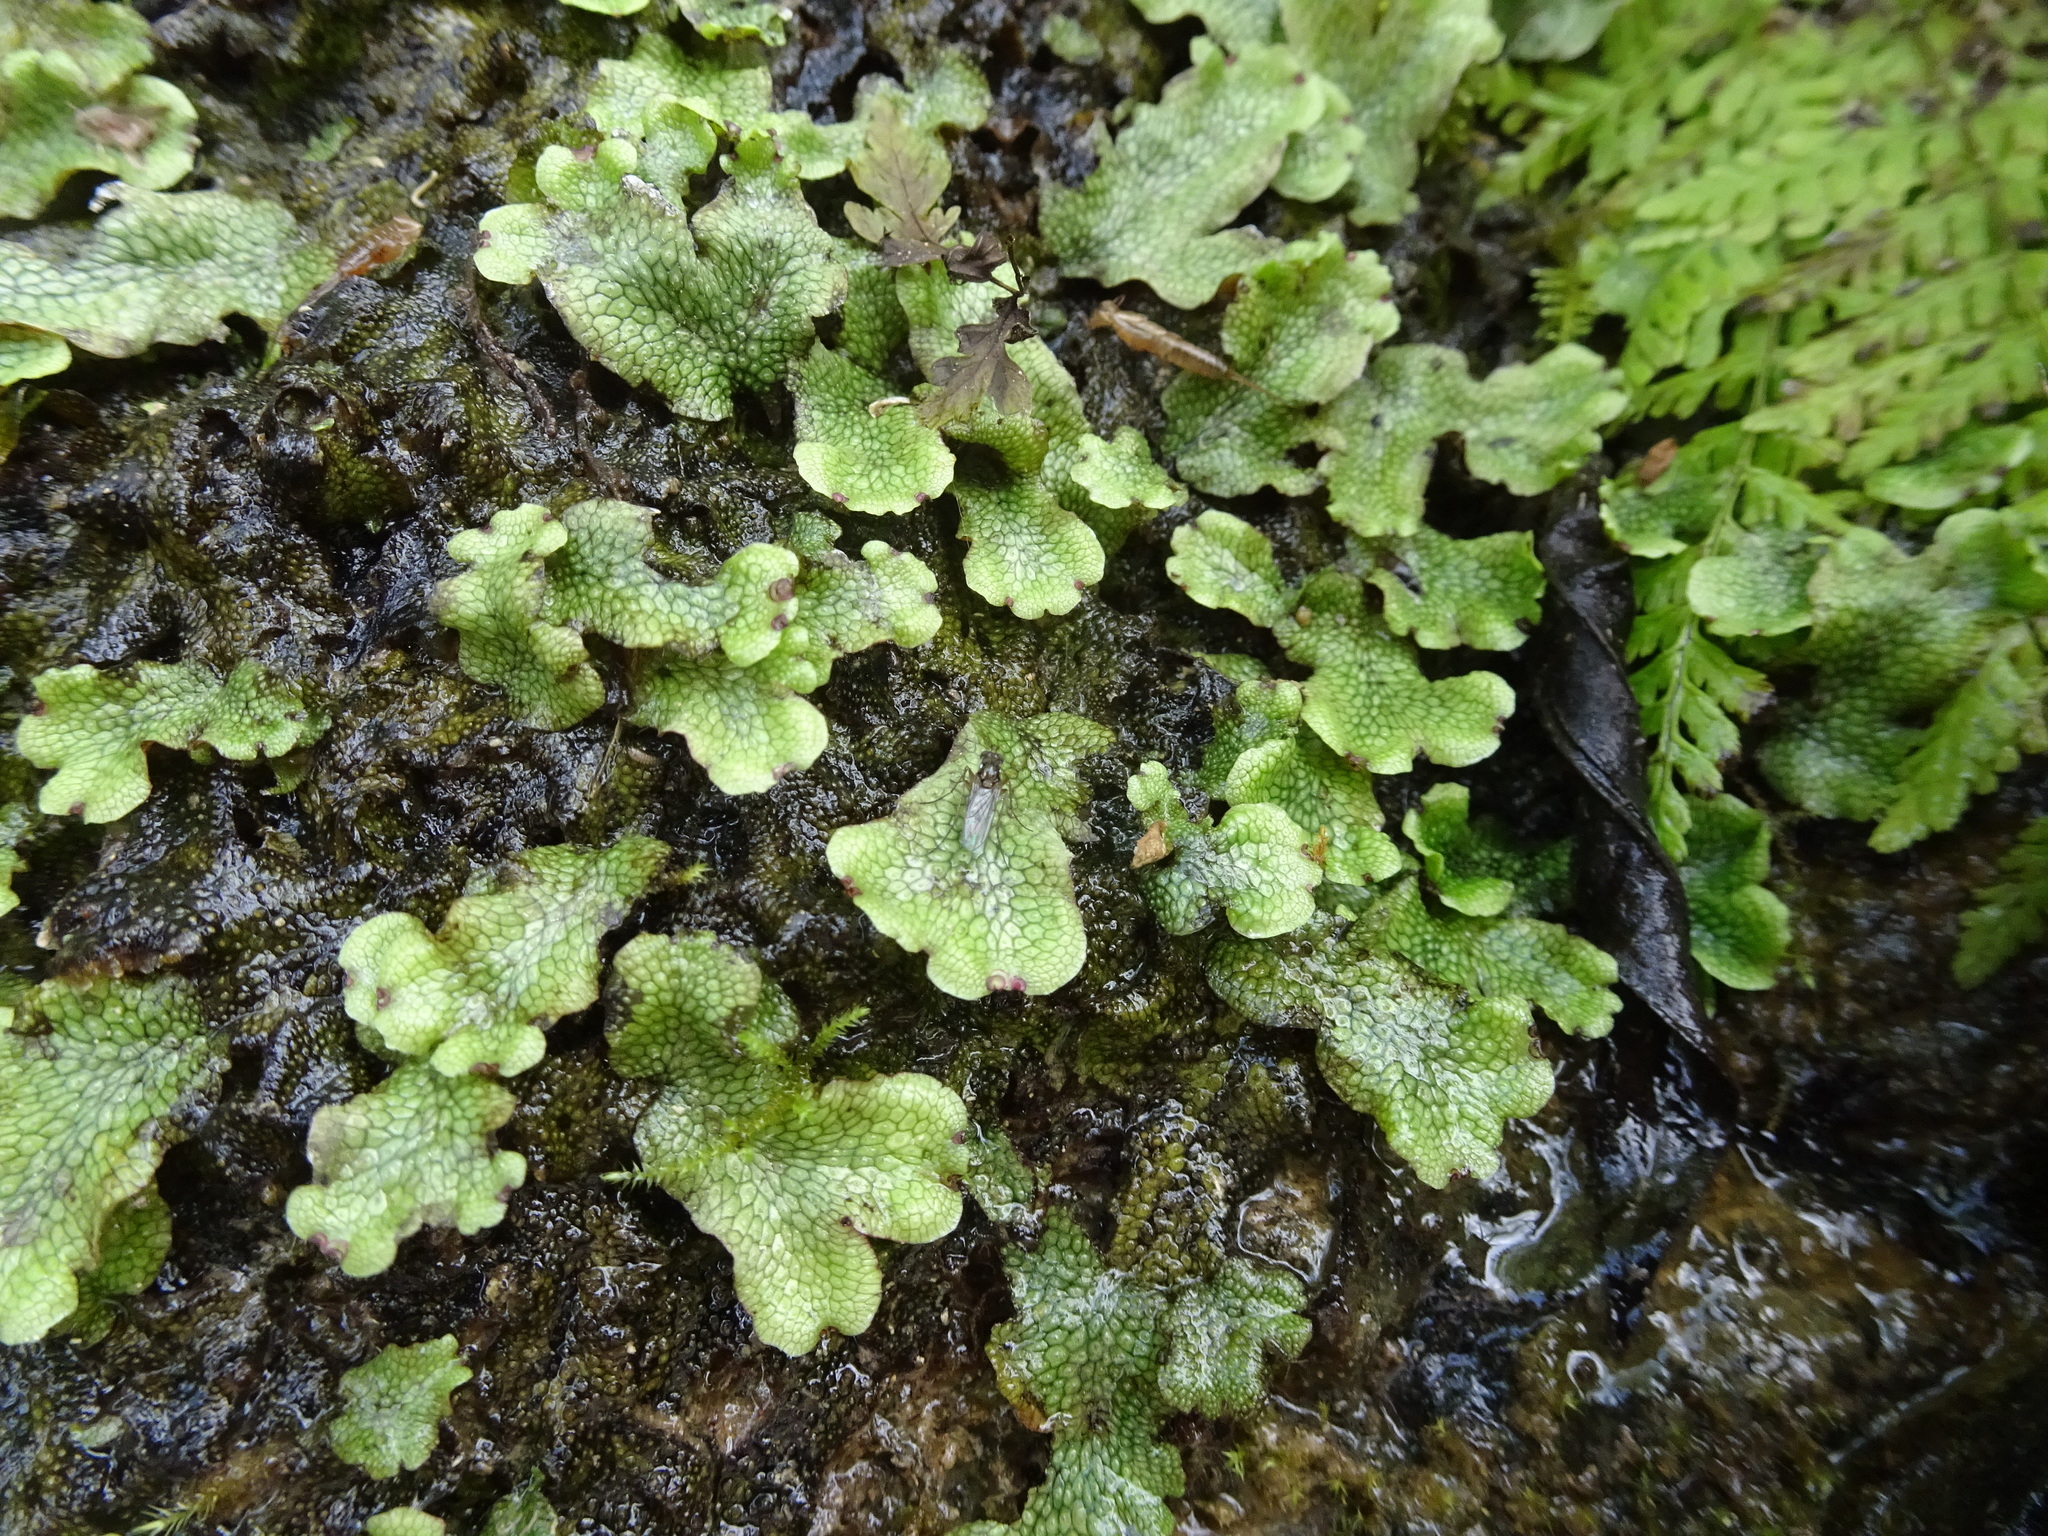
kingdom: Plantae
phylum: Marchantiophyta
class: Marchantiopsida
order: Marchantiales
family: Conocephalaceae
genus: Conocephalum
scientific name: Conocephalum salebrosum
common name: Cat-tongue liverwort
